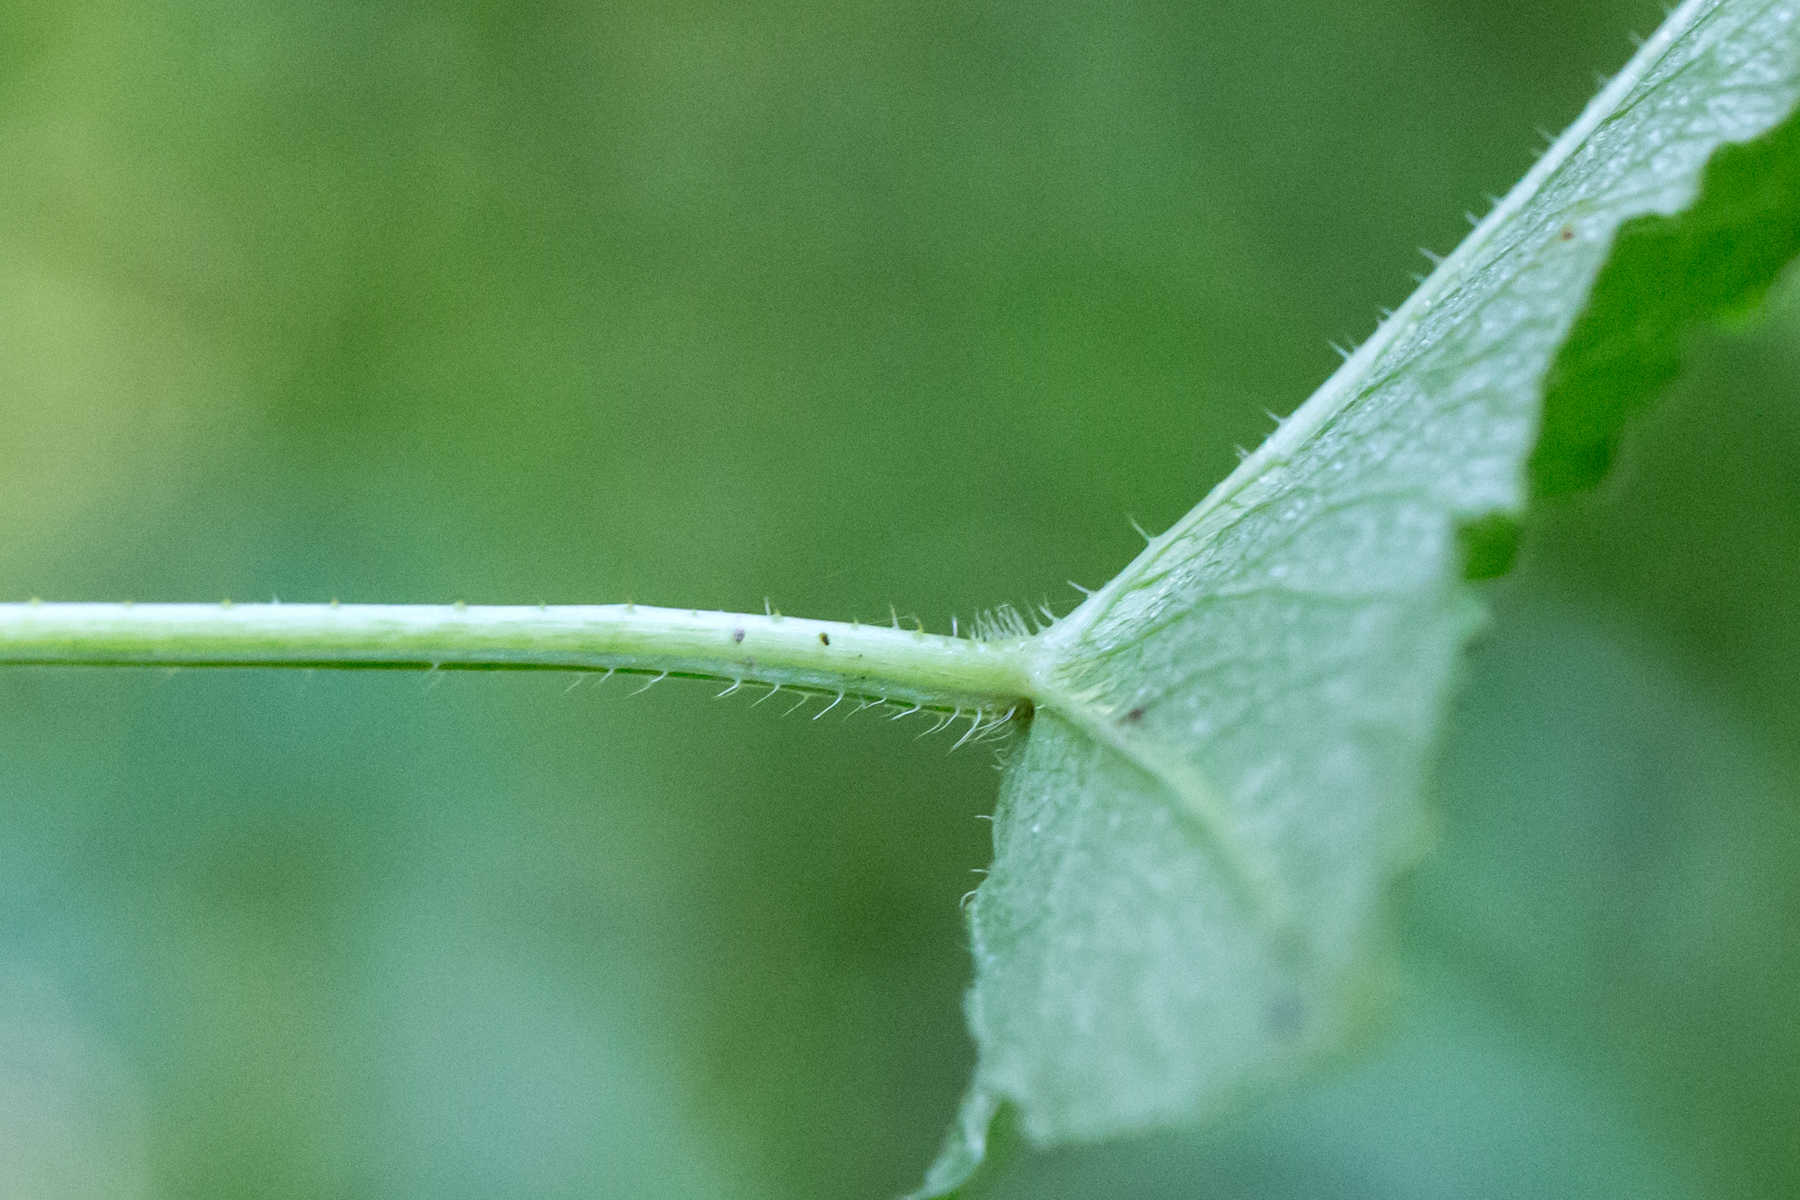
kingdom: Plantae
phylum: Tracheophyta
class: Magnoliopsida
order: Caryophyllales
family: Polygonaceae
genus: Persicaria
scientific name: Persicaria arifolia
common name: Halberd-leaved tear-thumb
